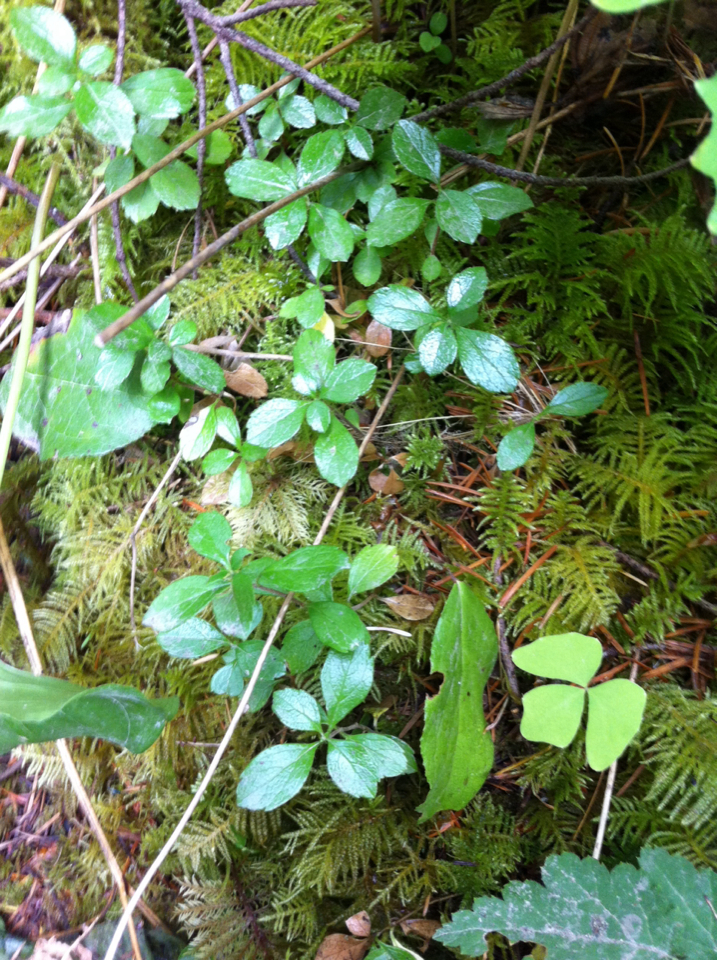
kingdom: Plantae
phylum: Tracheophyta
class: Magnoliopsida
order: Dipsacales
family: Caprifoliaceae
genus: Linnaea
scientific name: Linnaea borealis
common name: Twinflower
